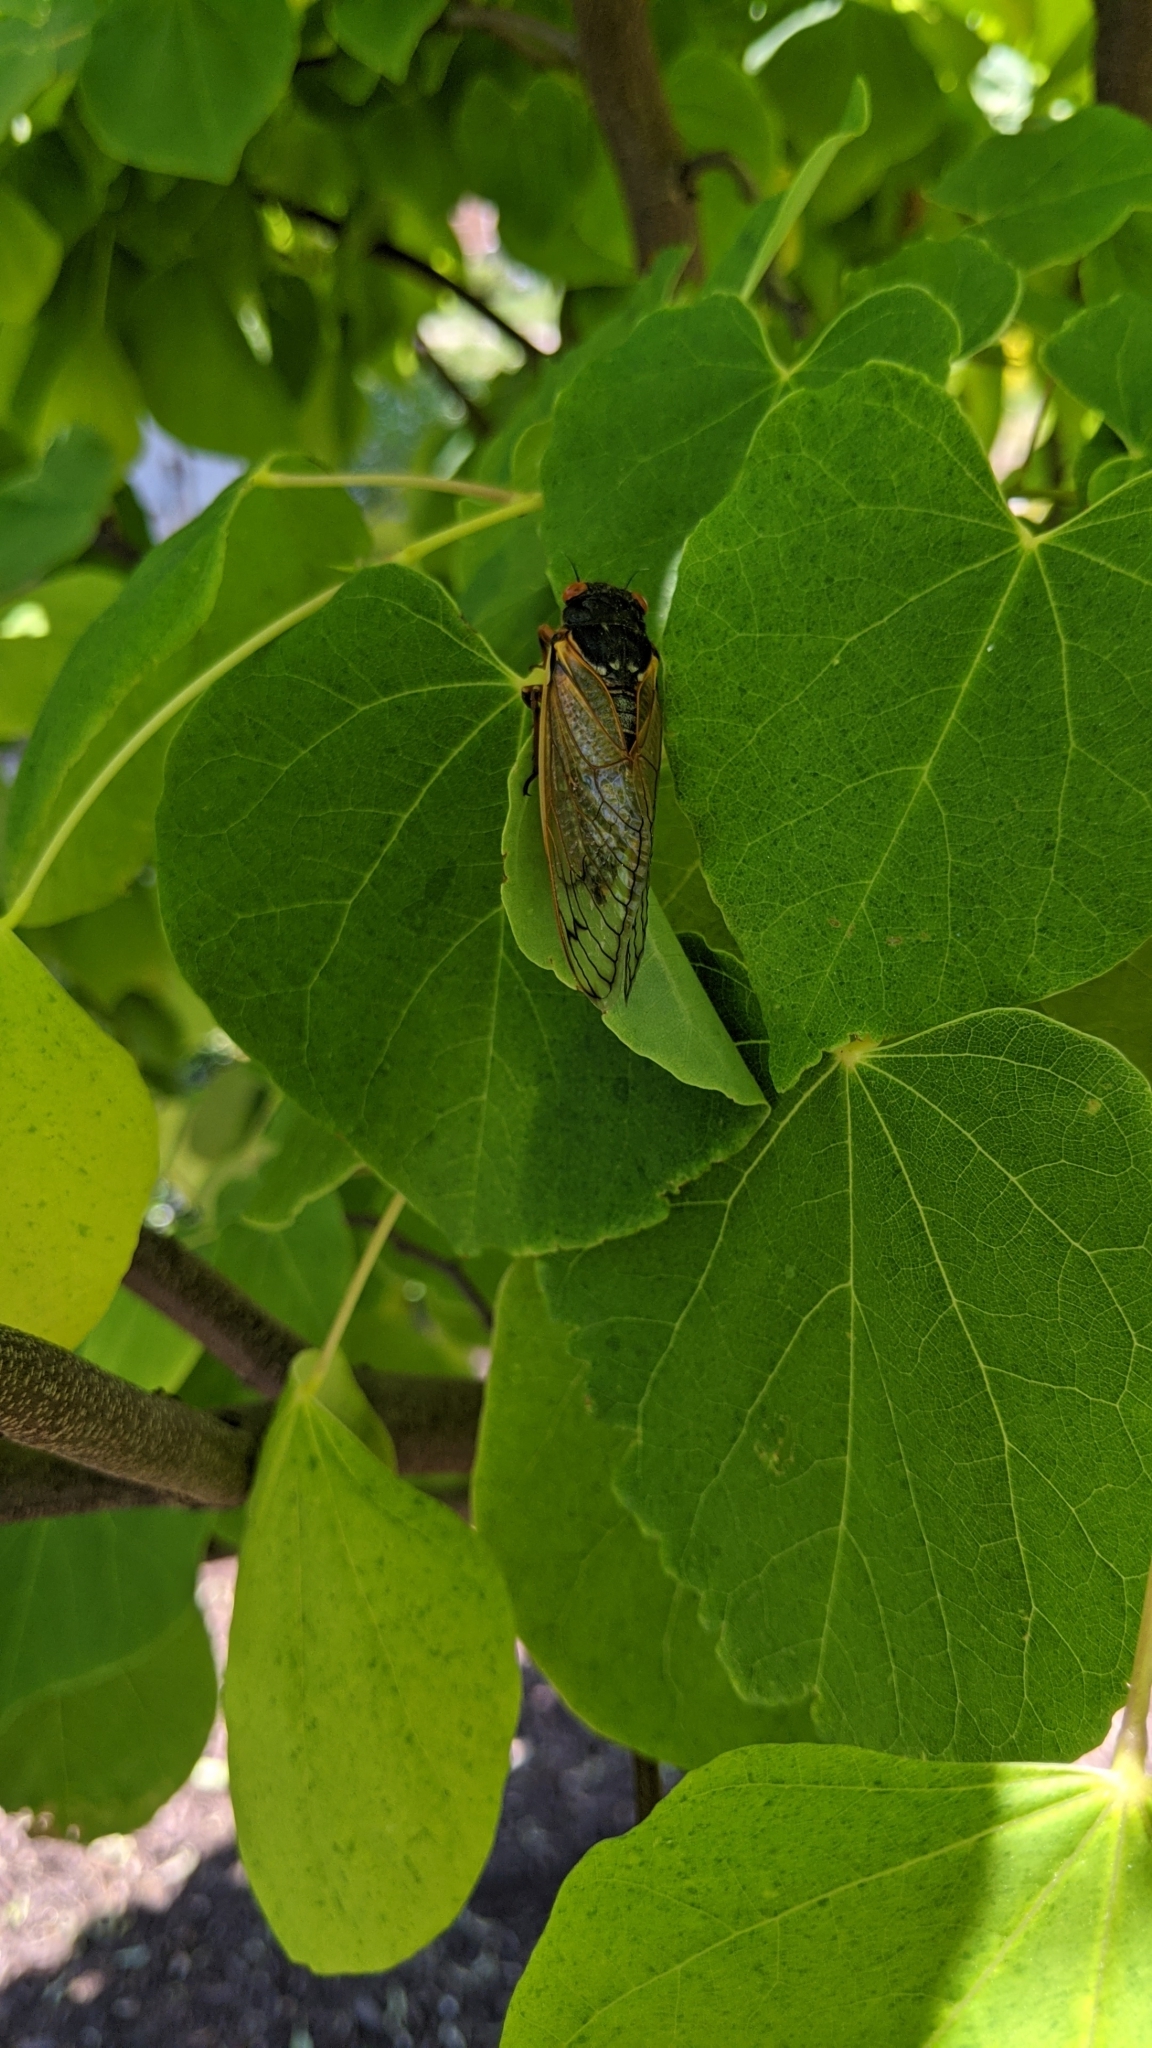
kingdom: Animalia
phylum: Arthropoda
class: Insecta
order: Hemiptera
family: Cicadidae
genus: Magicicada
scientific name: Magicicada
